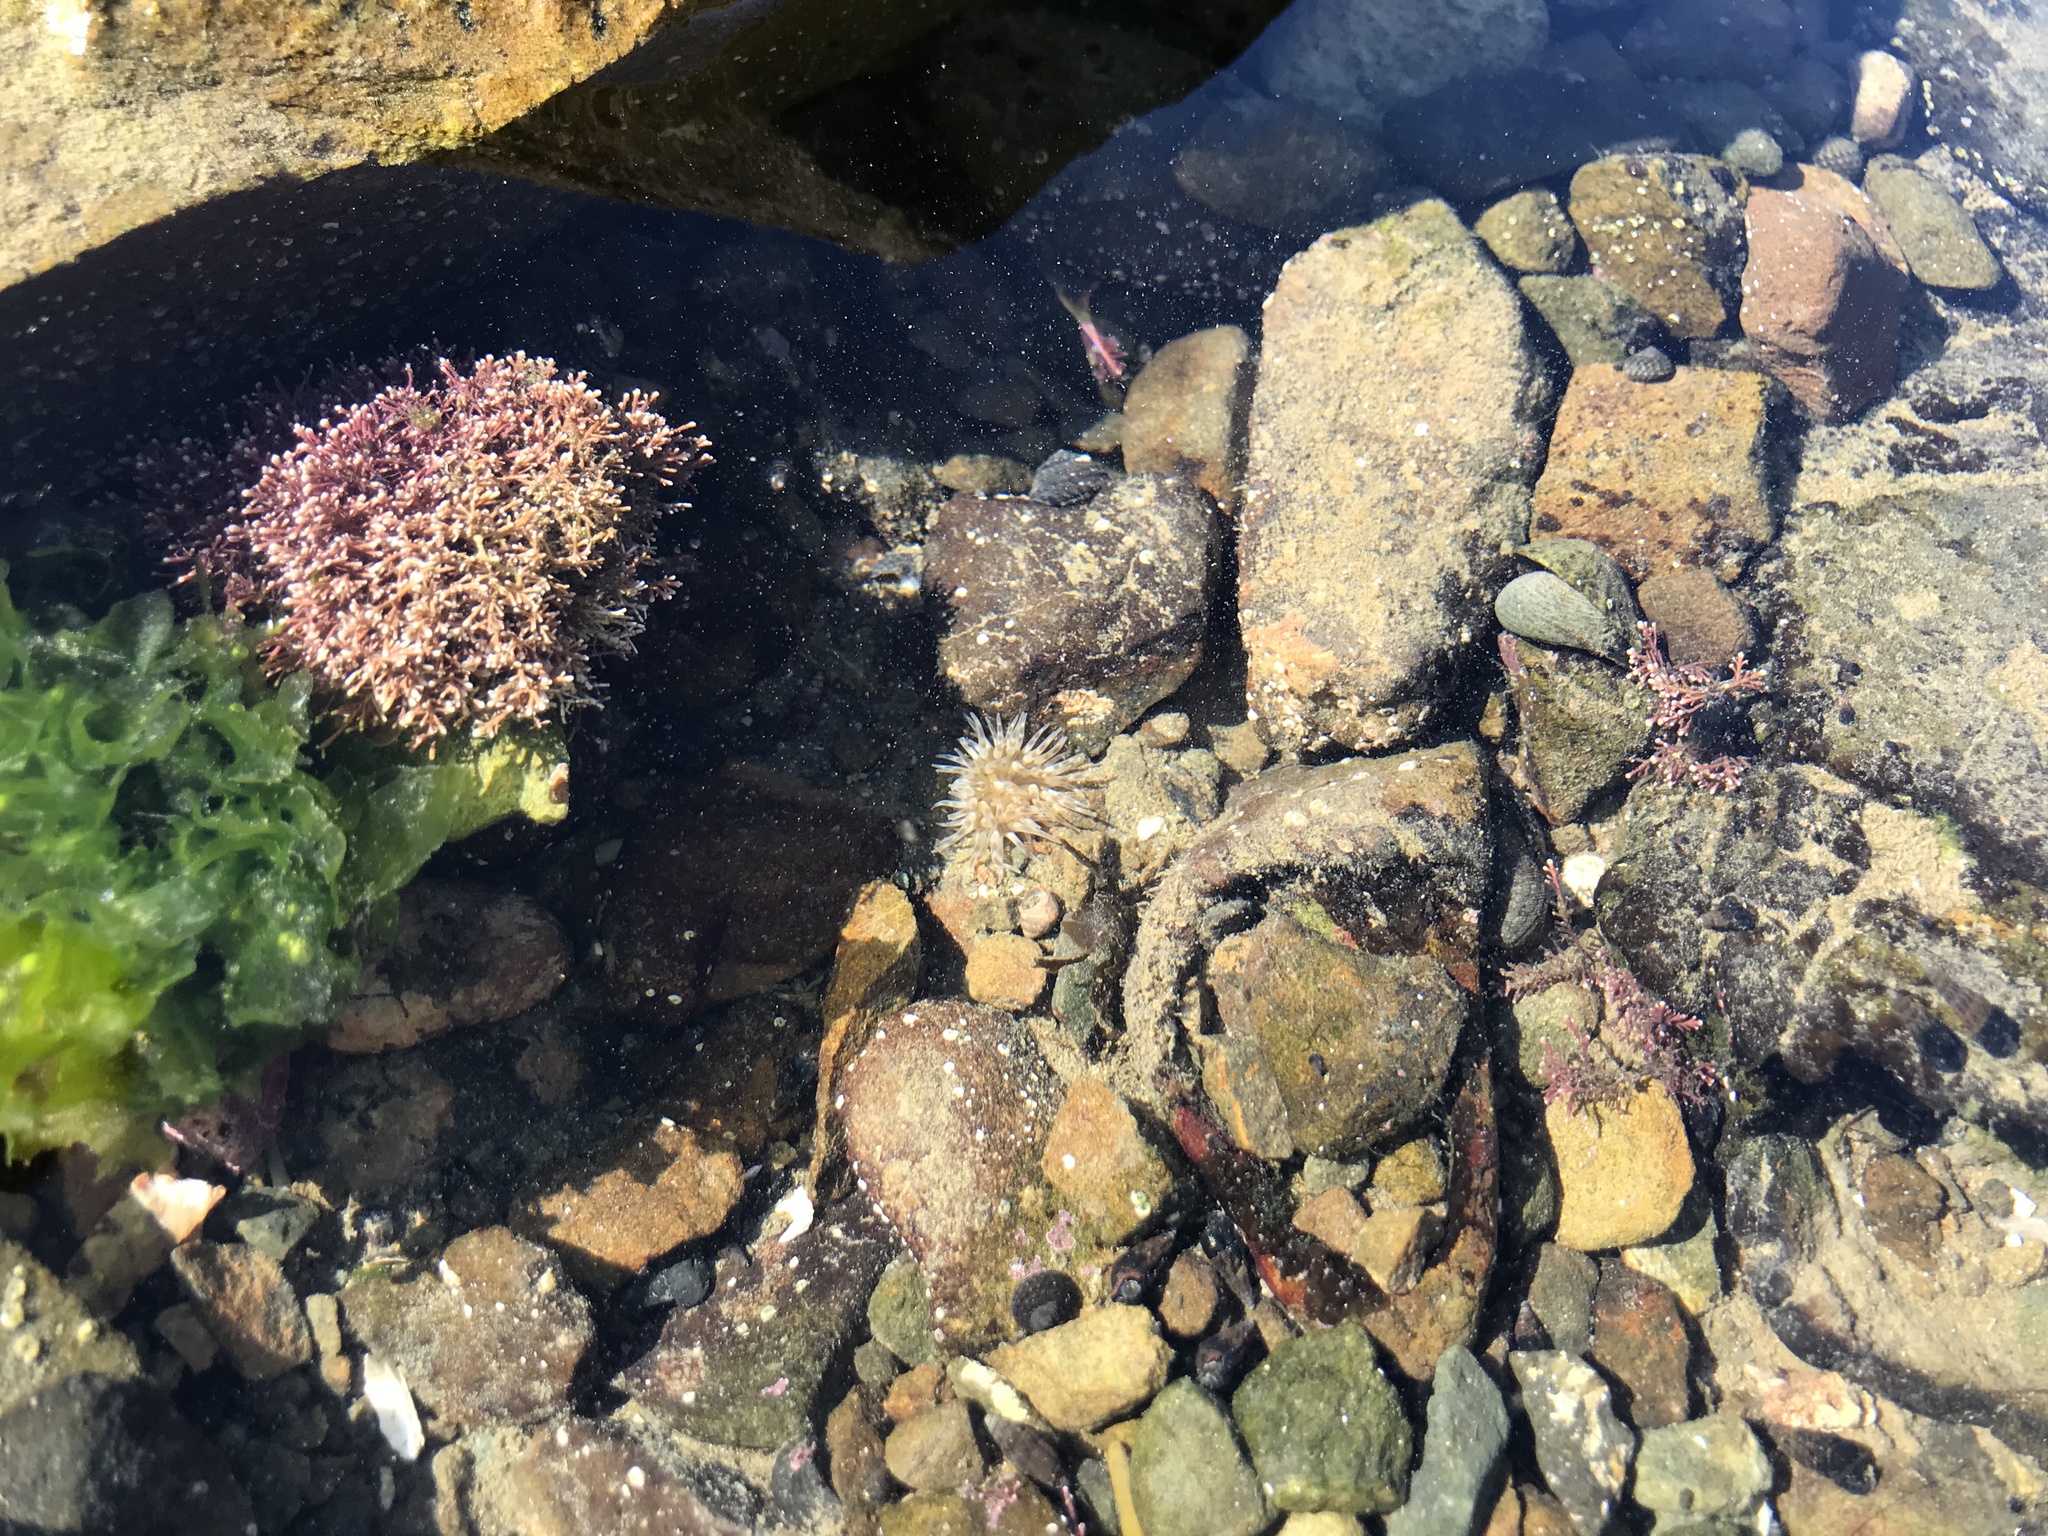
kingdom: Animalia
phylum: Cnidaria
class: Anthozoa
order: Actiniaria
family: Isanthidae
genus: Isoparactis
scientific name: Isoparactis ferax
